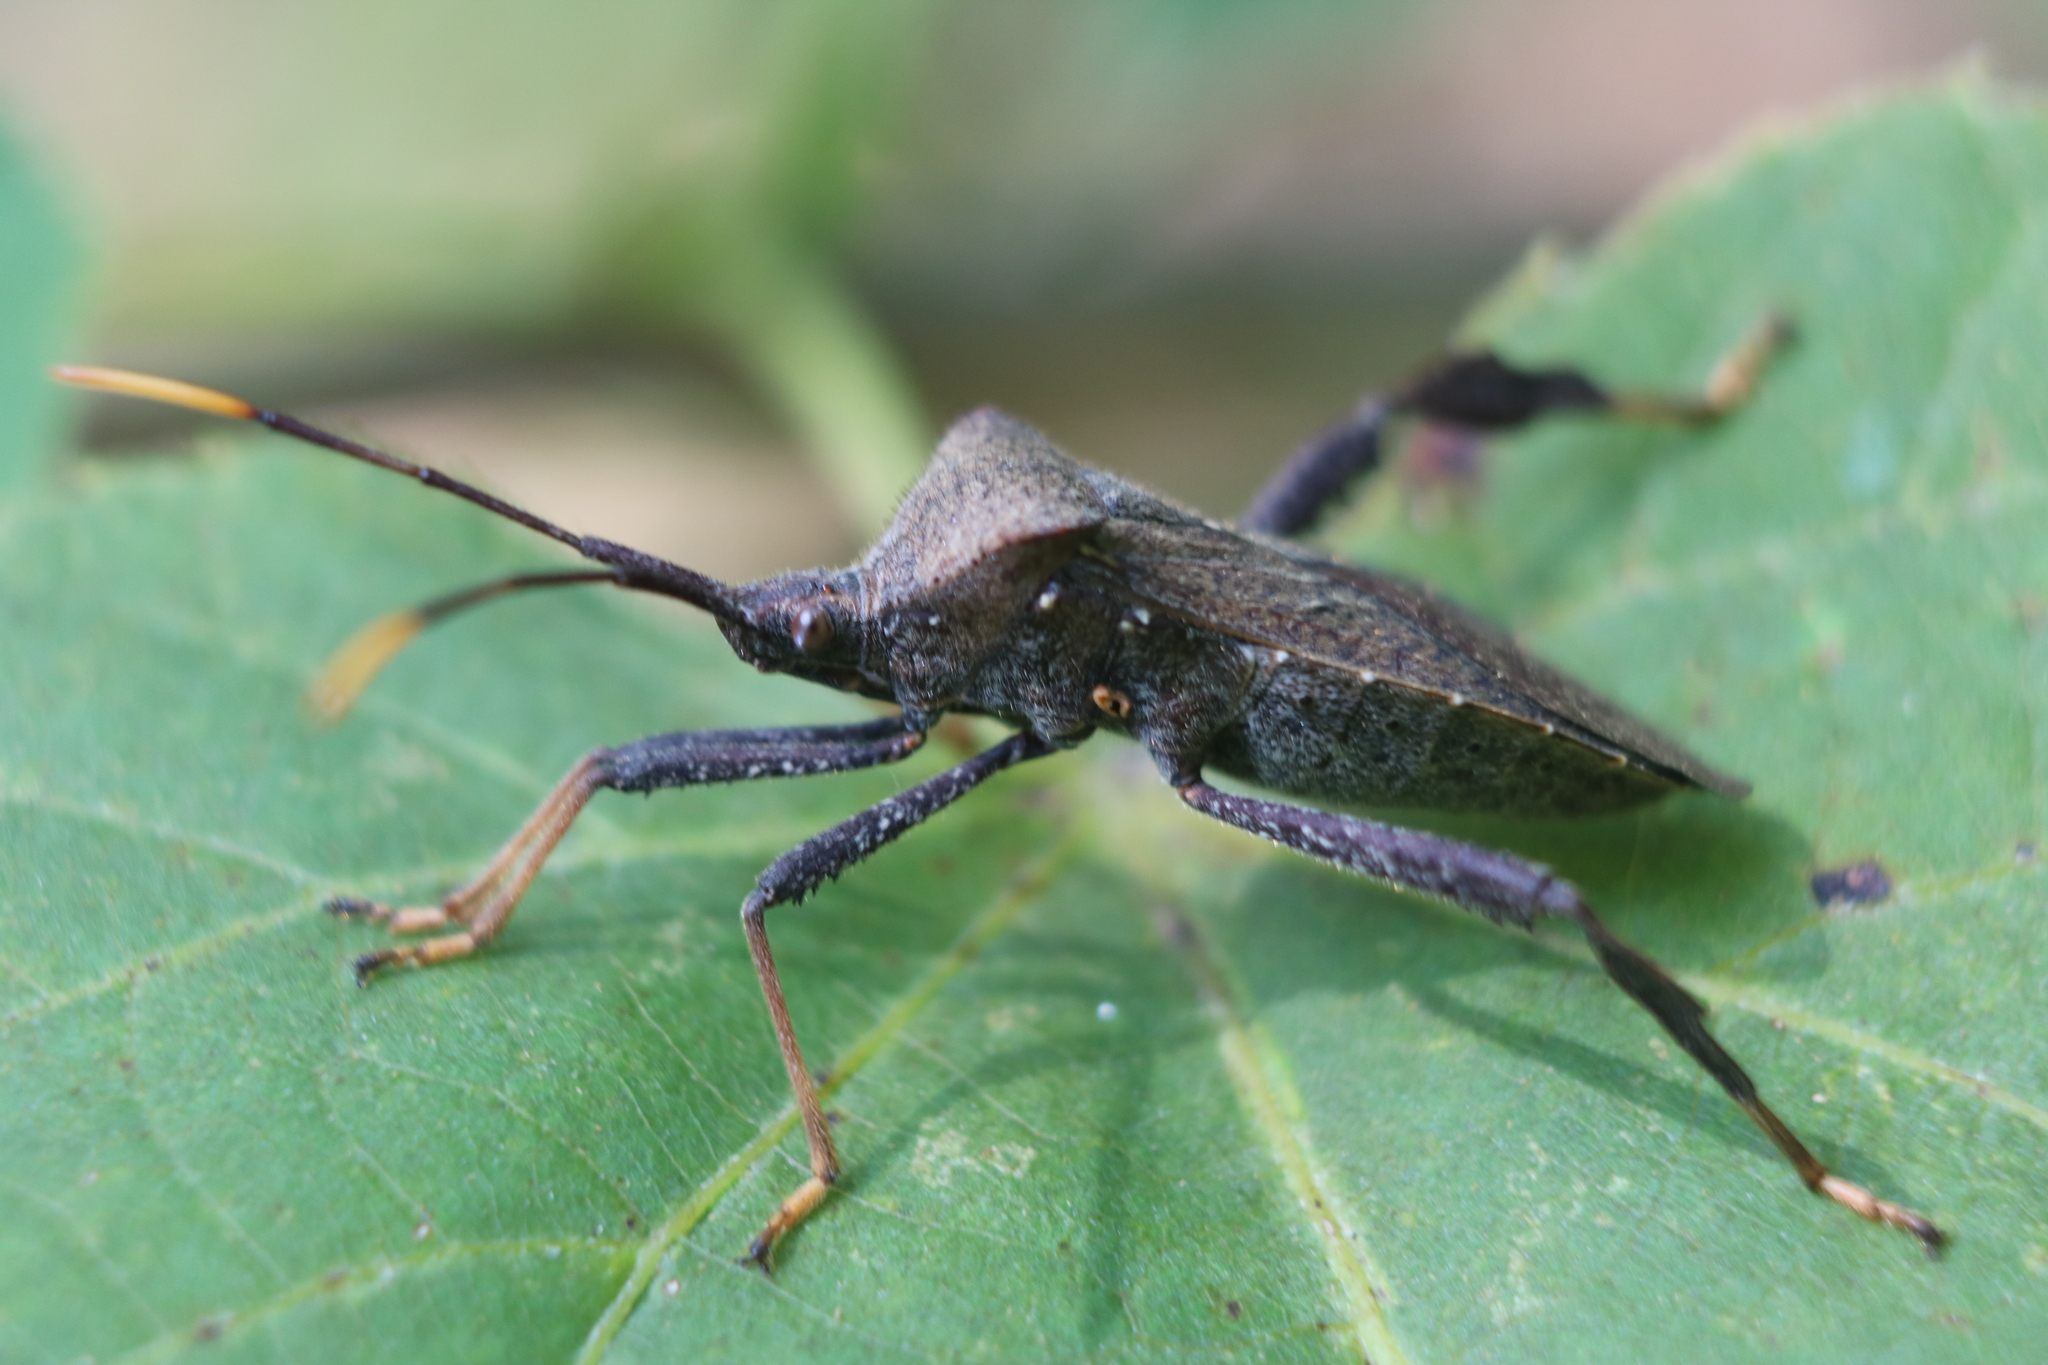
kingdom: Animalia
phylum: Arthropoda
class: Insecta
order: Hemiptera
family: Coreidae
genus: Acanthocephala
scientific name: Acanthocephala terminalis
